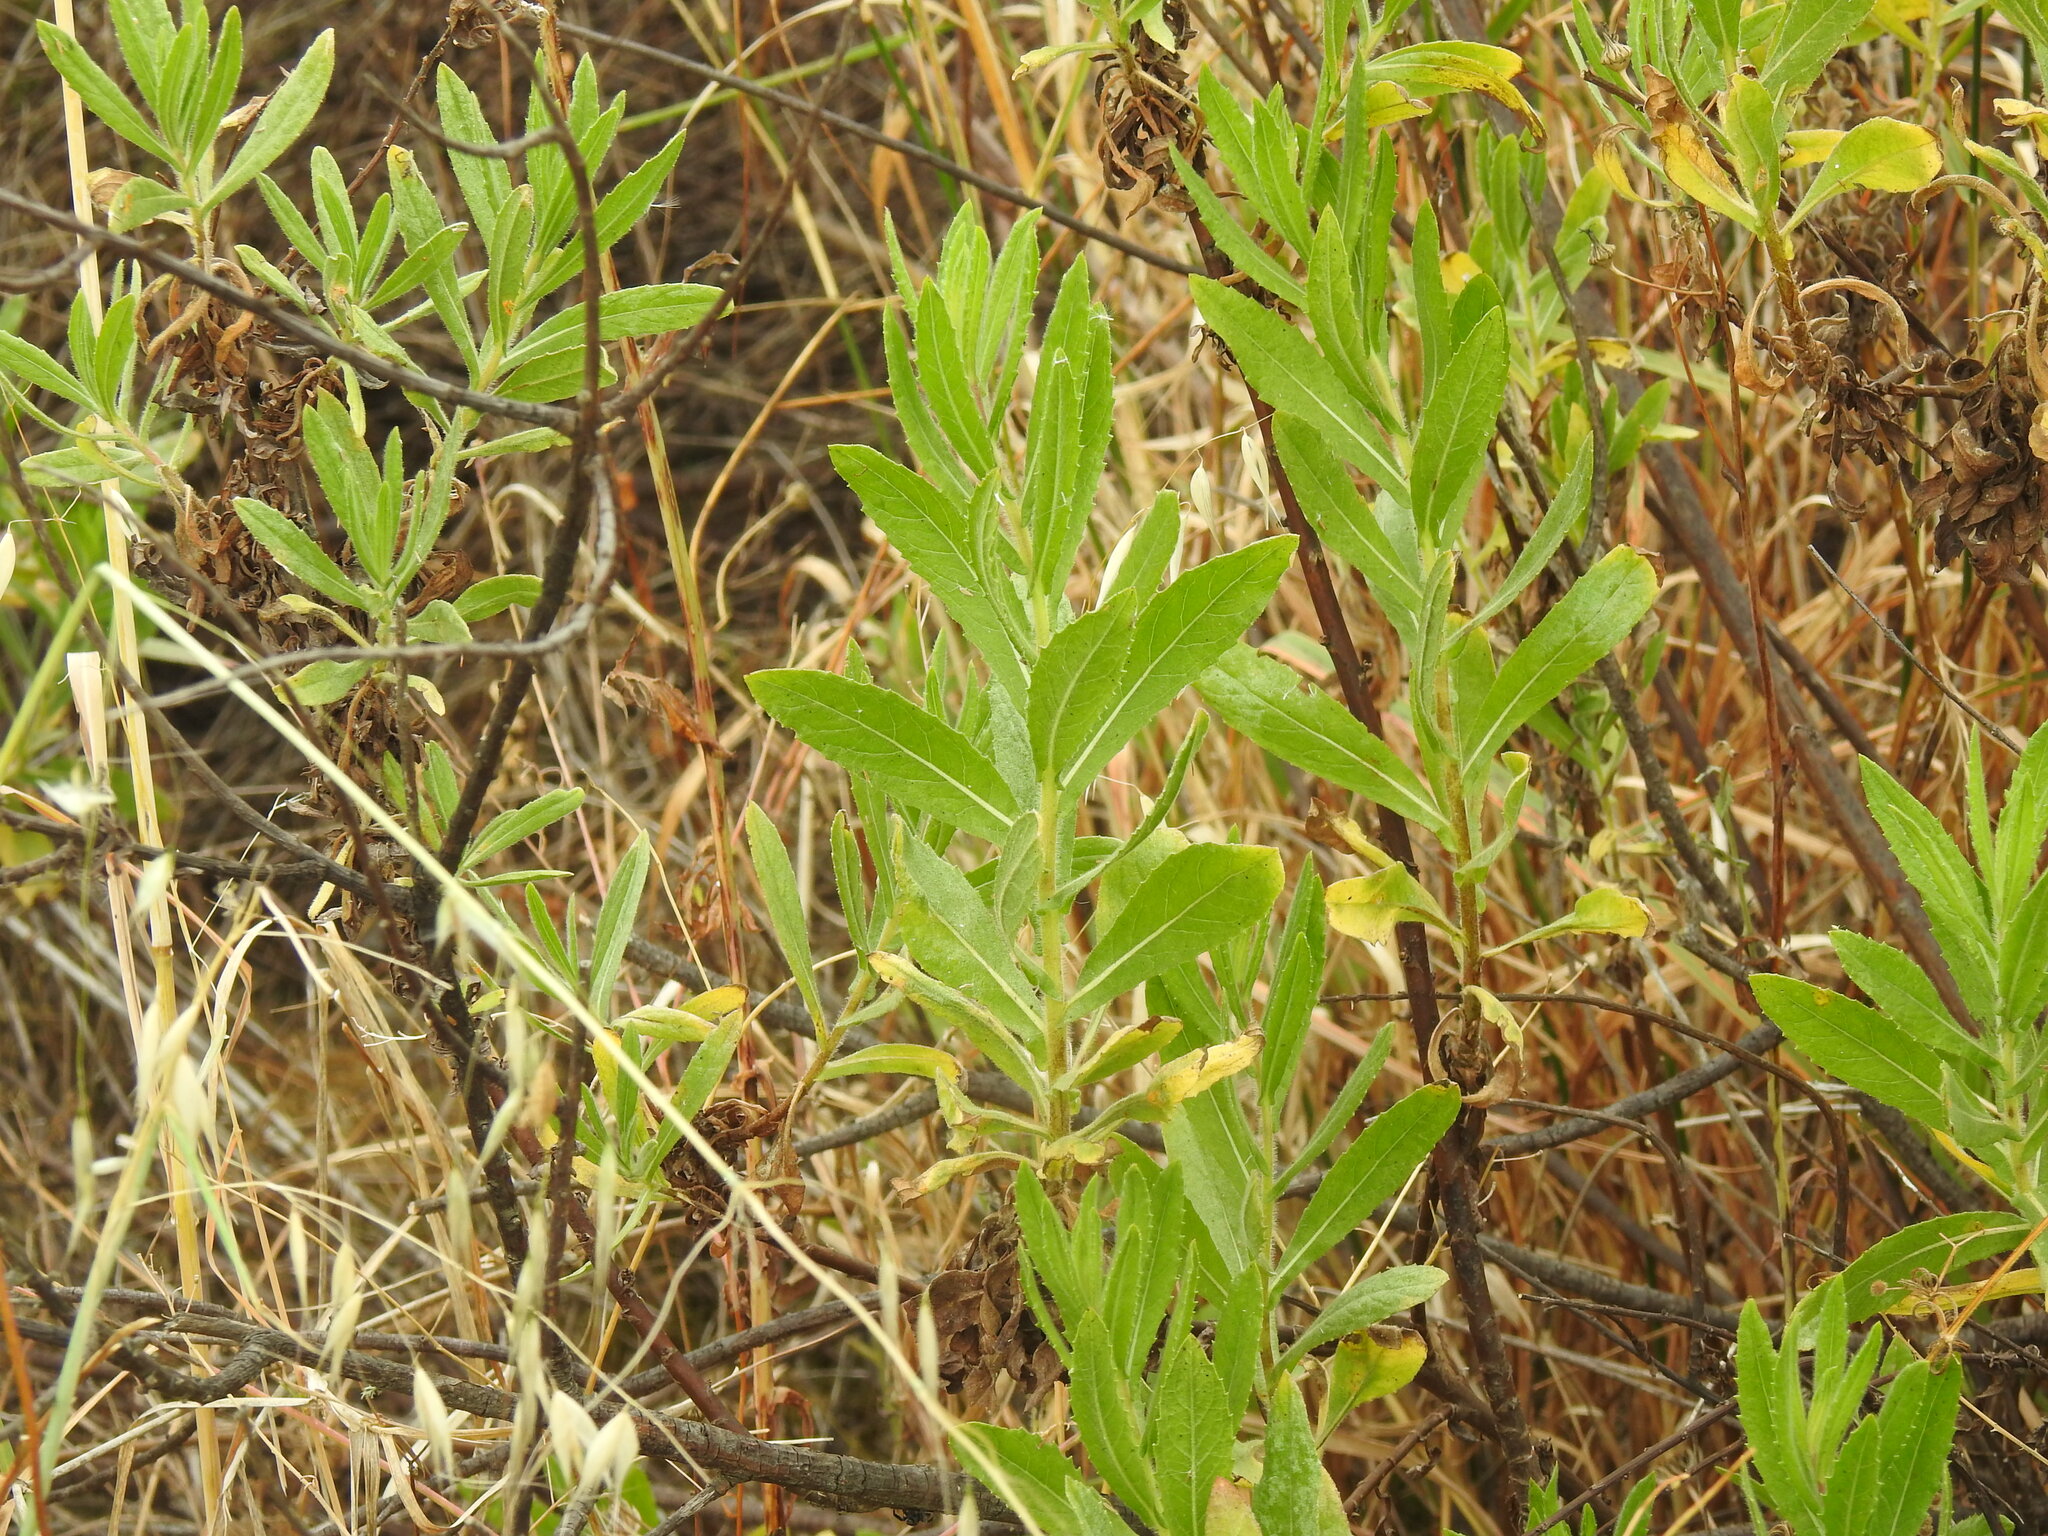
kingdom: Plantae
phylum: Tracheophyta
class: Magnoliopsida
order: Asterales
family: Asteraceae
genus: Dittrichia
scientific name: Dittrichia viscosa
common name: Woody fleabane
